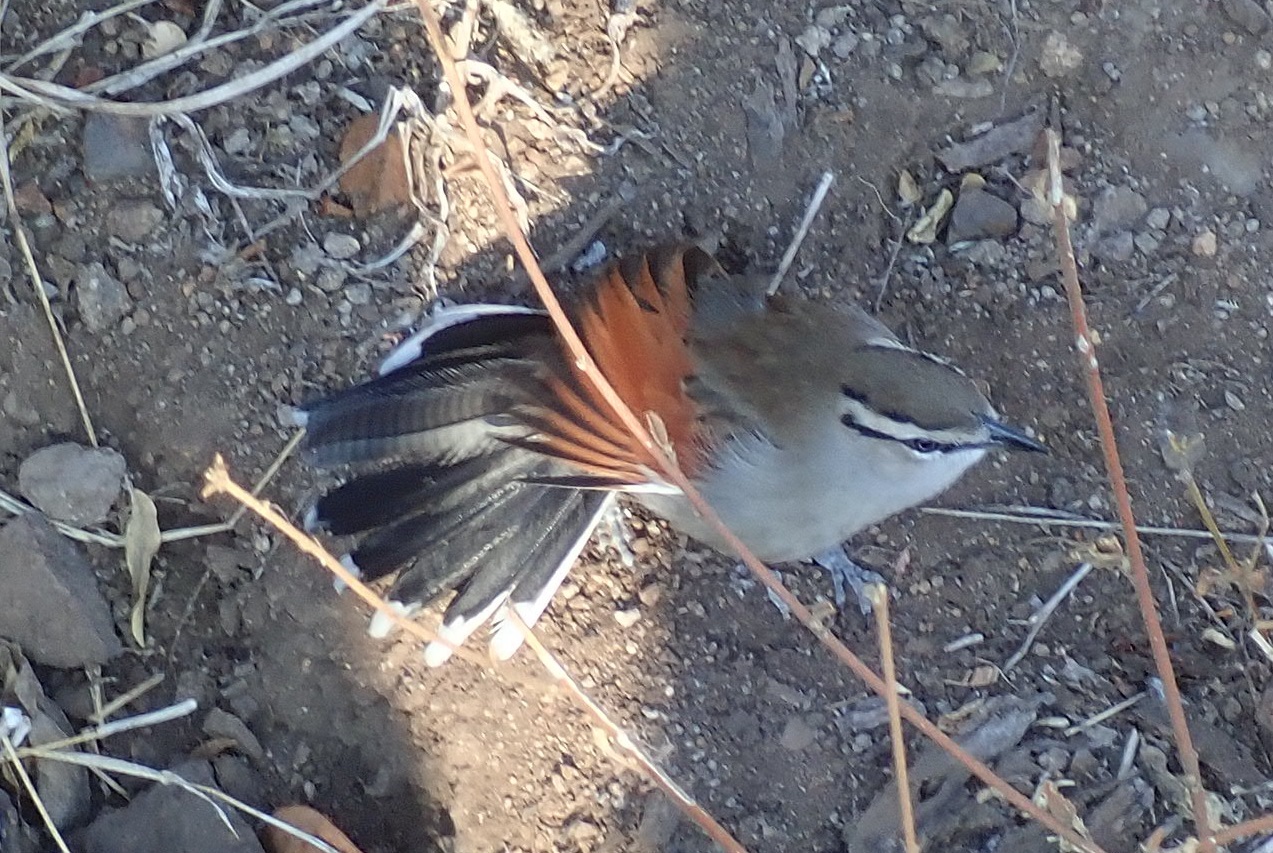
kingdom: Animalia
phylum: Chordata
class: Aves
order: Passeriformes
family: Malaconotidae
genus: Tchagra
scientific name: Tchagra australis
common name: Brown-crowned tchagra
